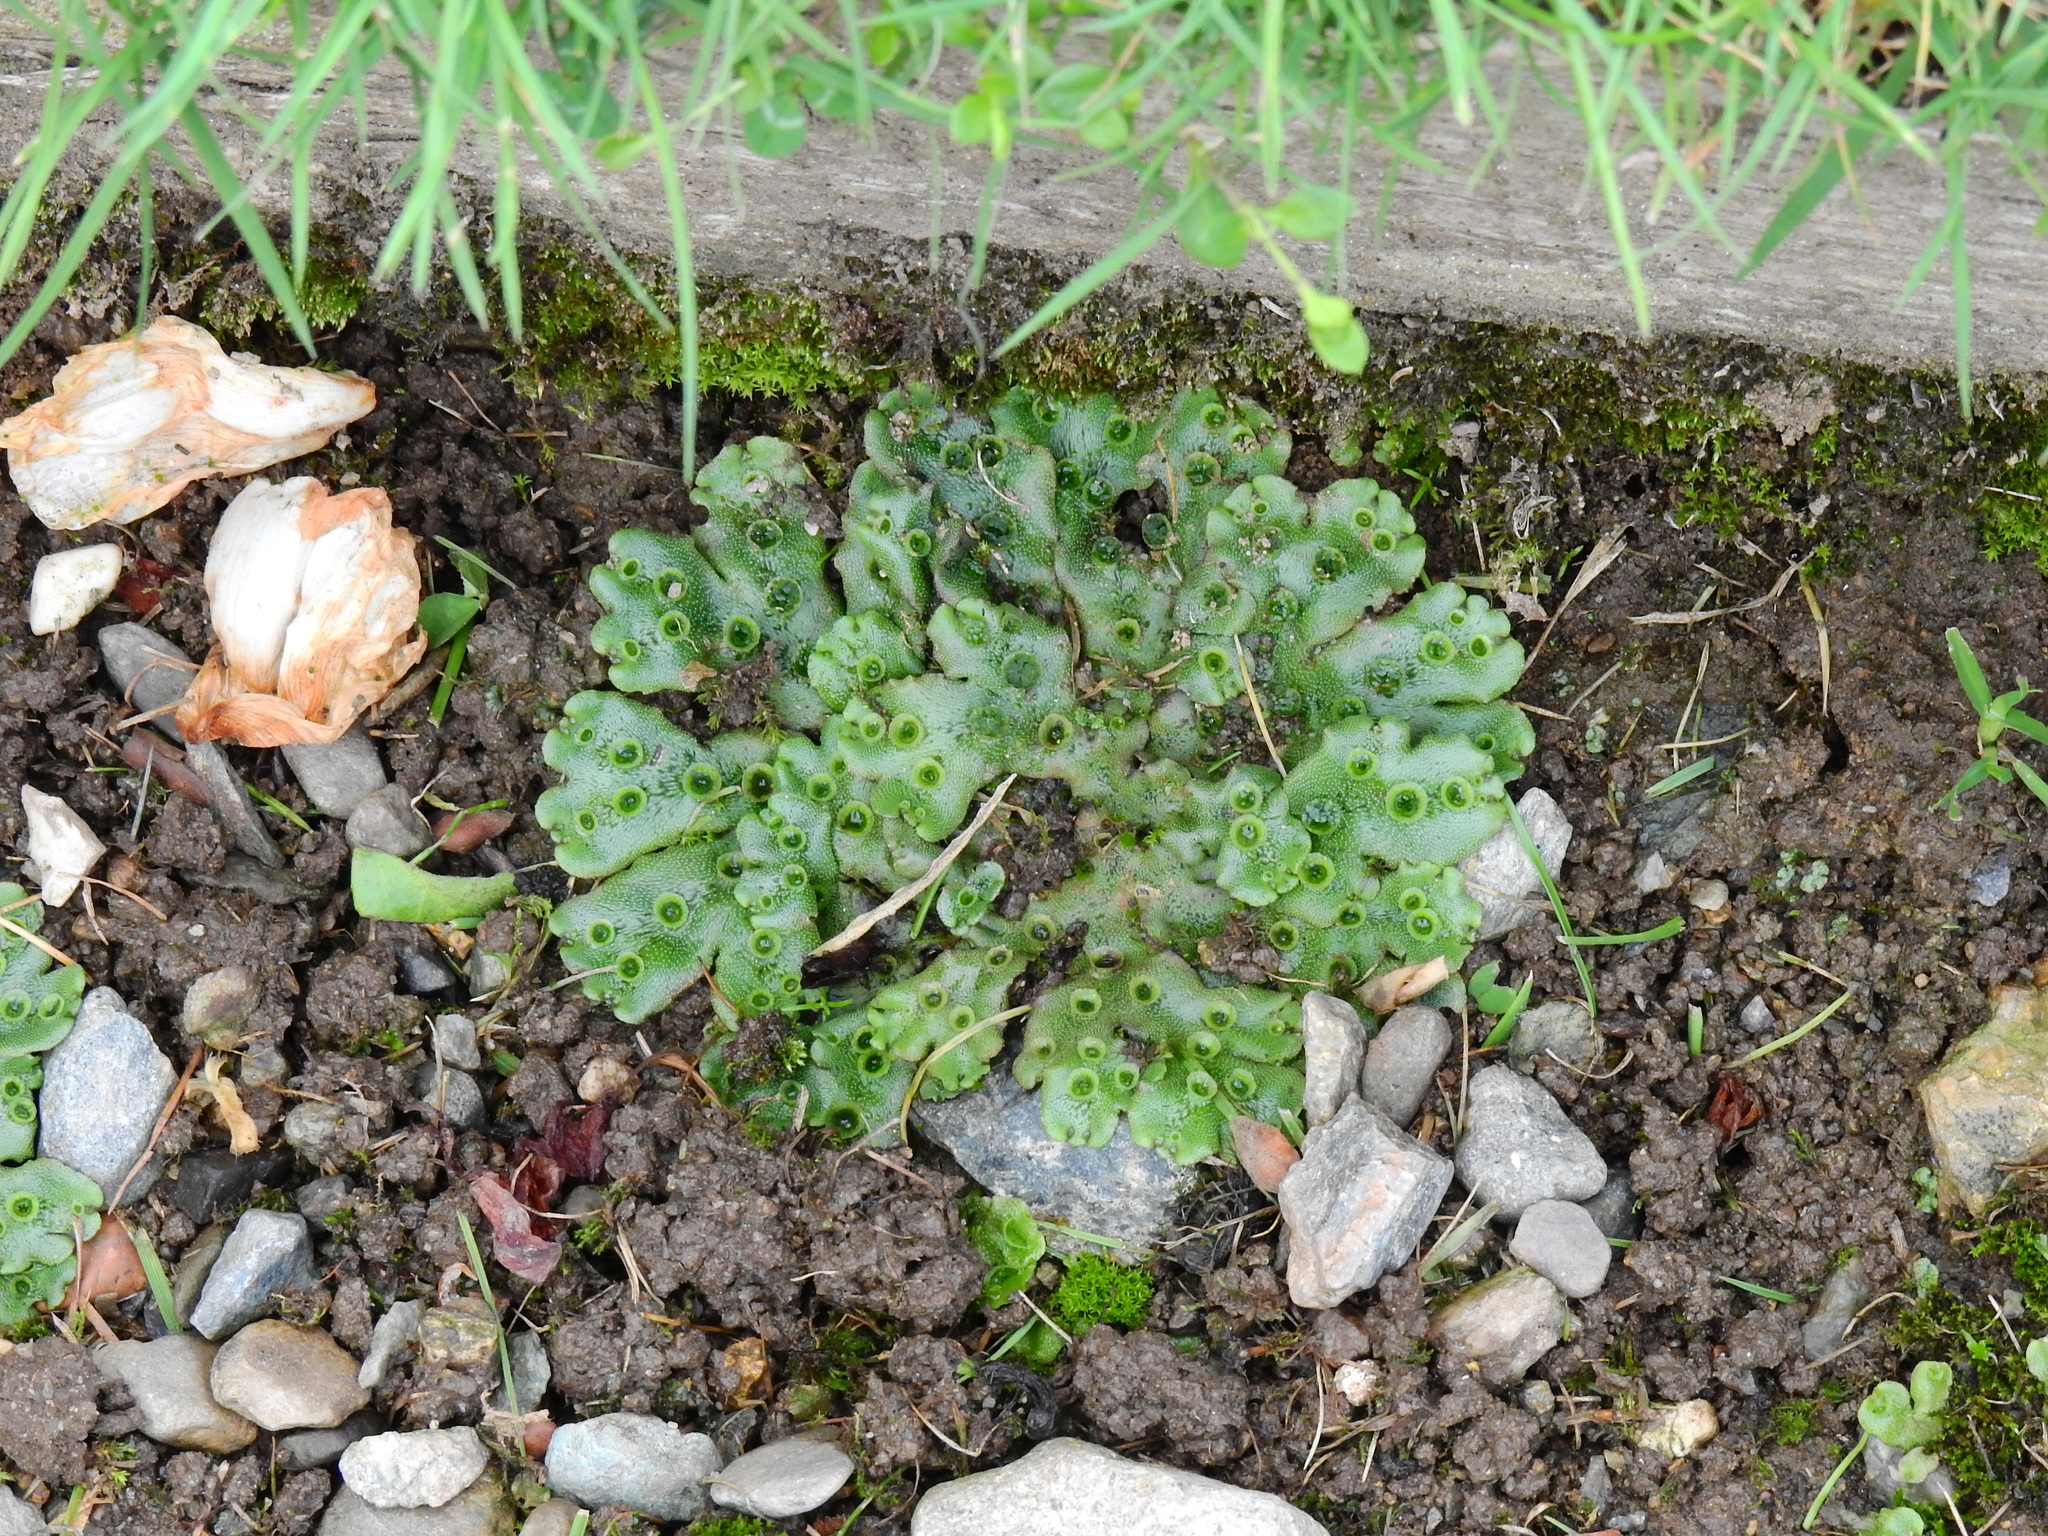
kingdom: Plantae
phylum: Marchantiophyta
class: Marchantiopsida
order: Marchantiales
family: Marchantiaceae
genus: Marchantia
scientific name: Marchantia polymorpha
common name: Common liverwort
